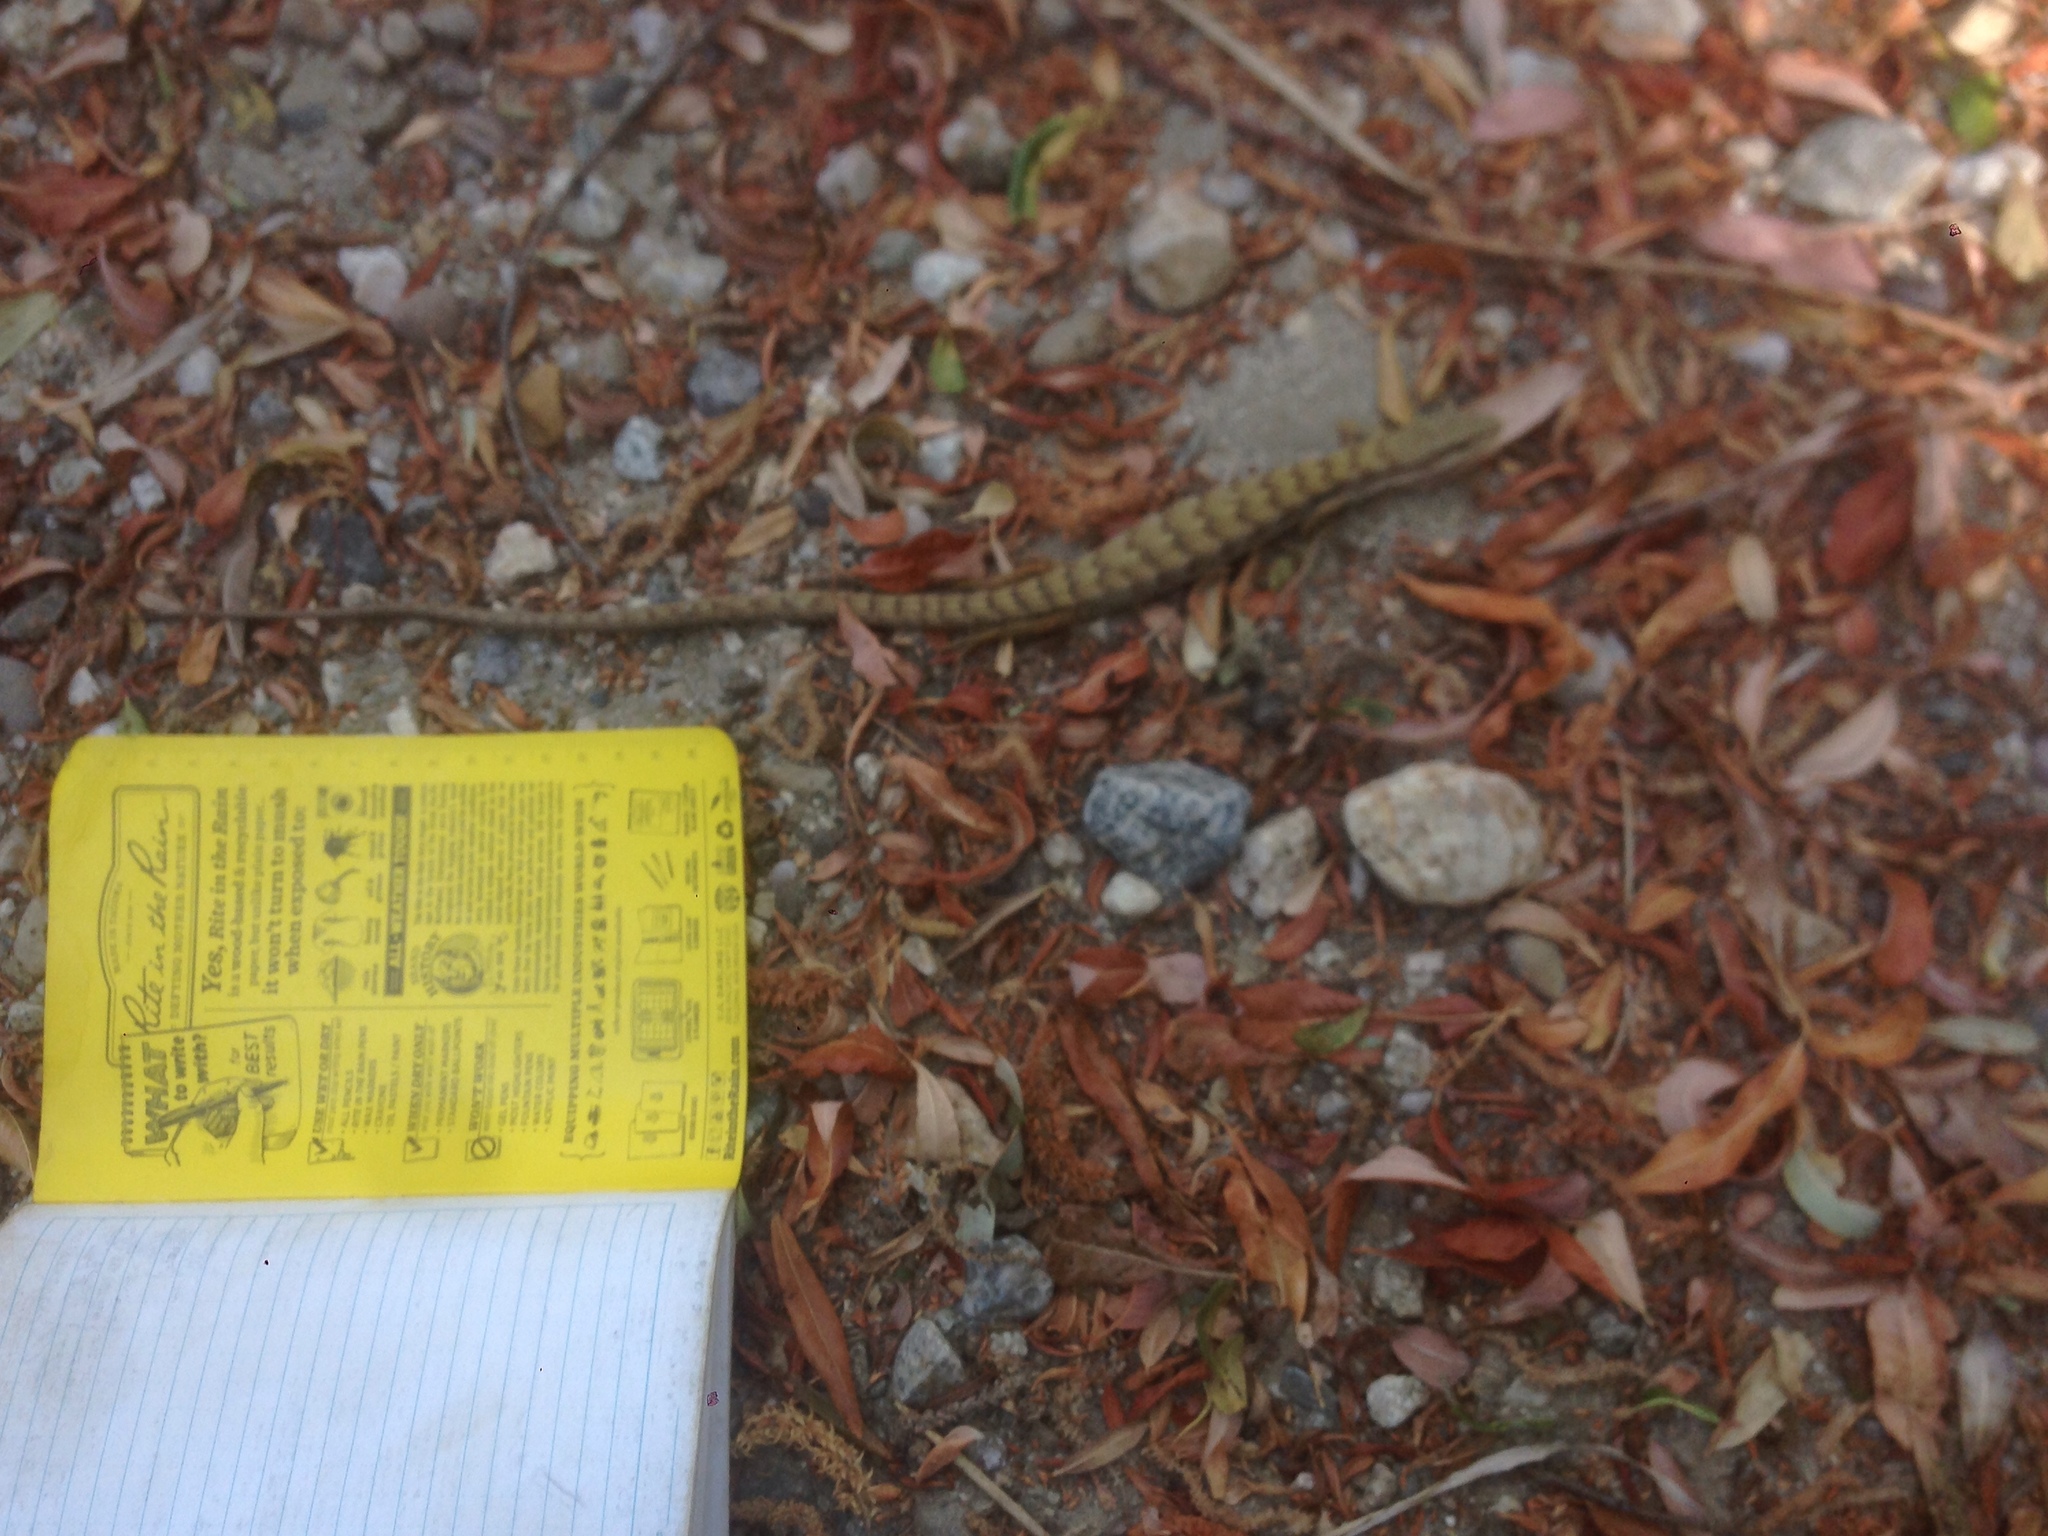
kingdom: Animalia
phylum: Chordata
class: Squamata
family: Anguidae
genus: Elgaria
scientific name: Elgaria multicarinata
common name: Southern alligator lizard
